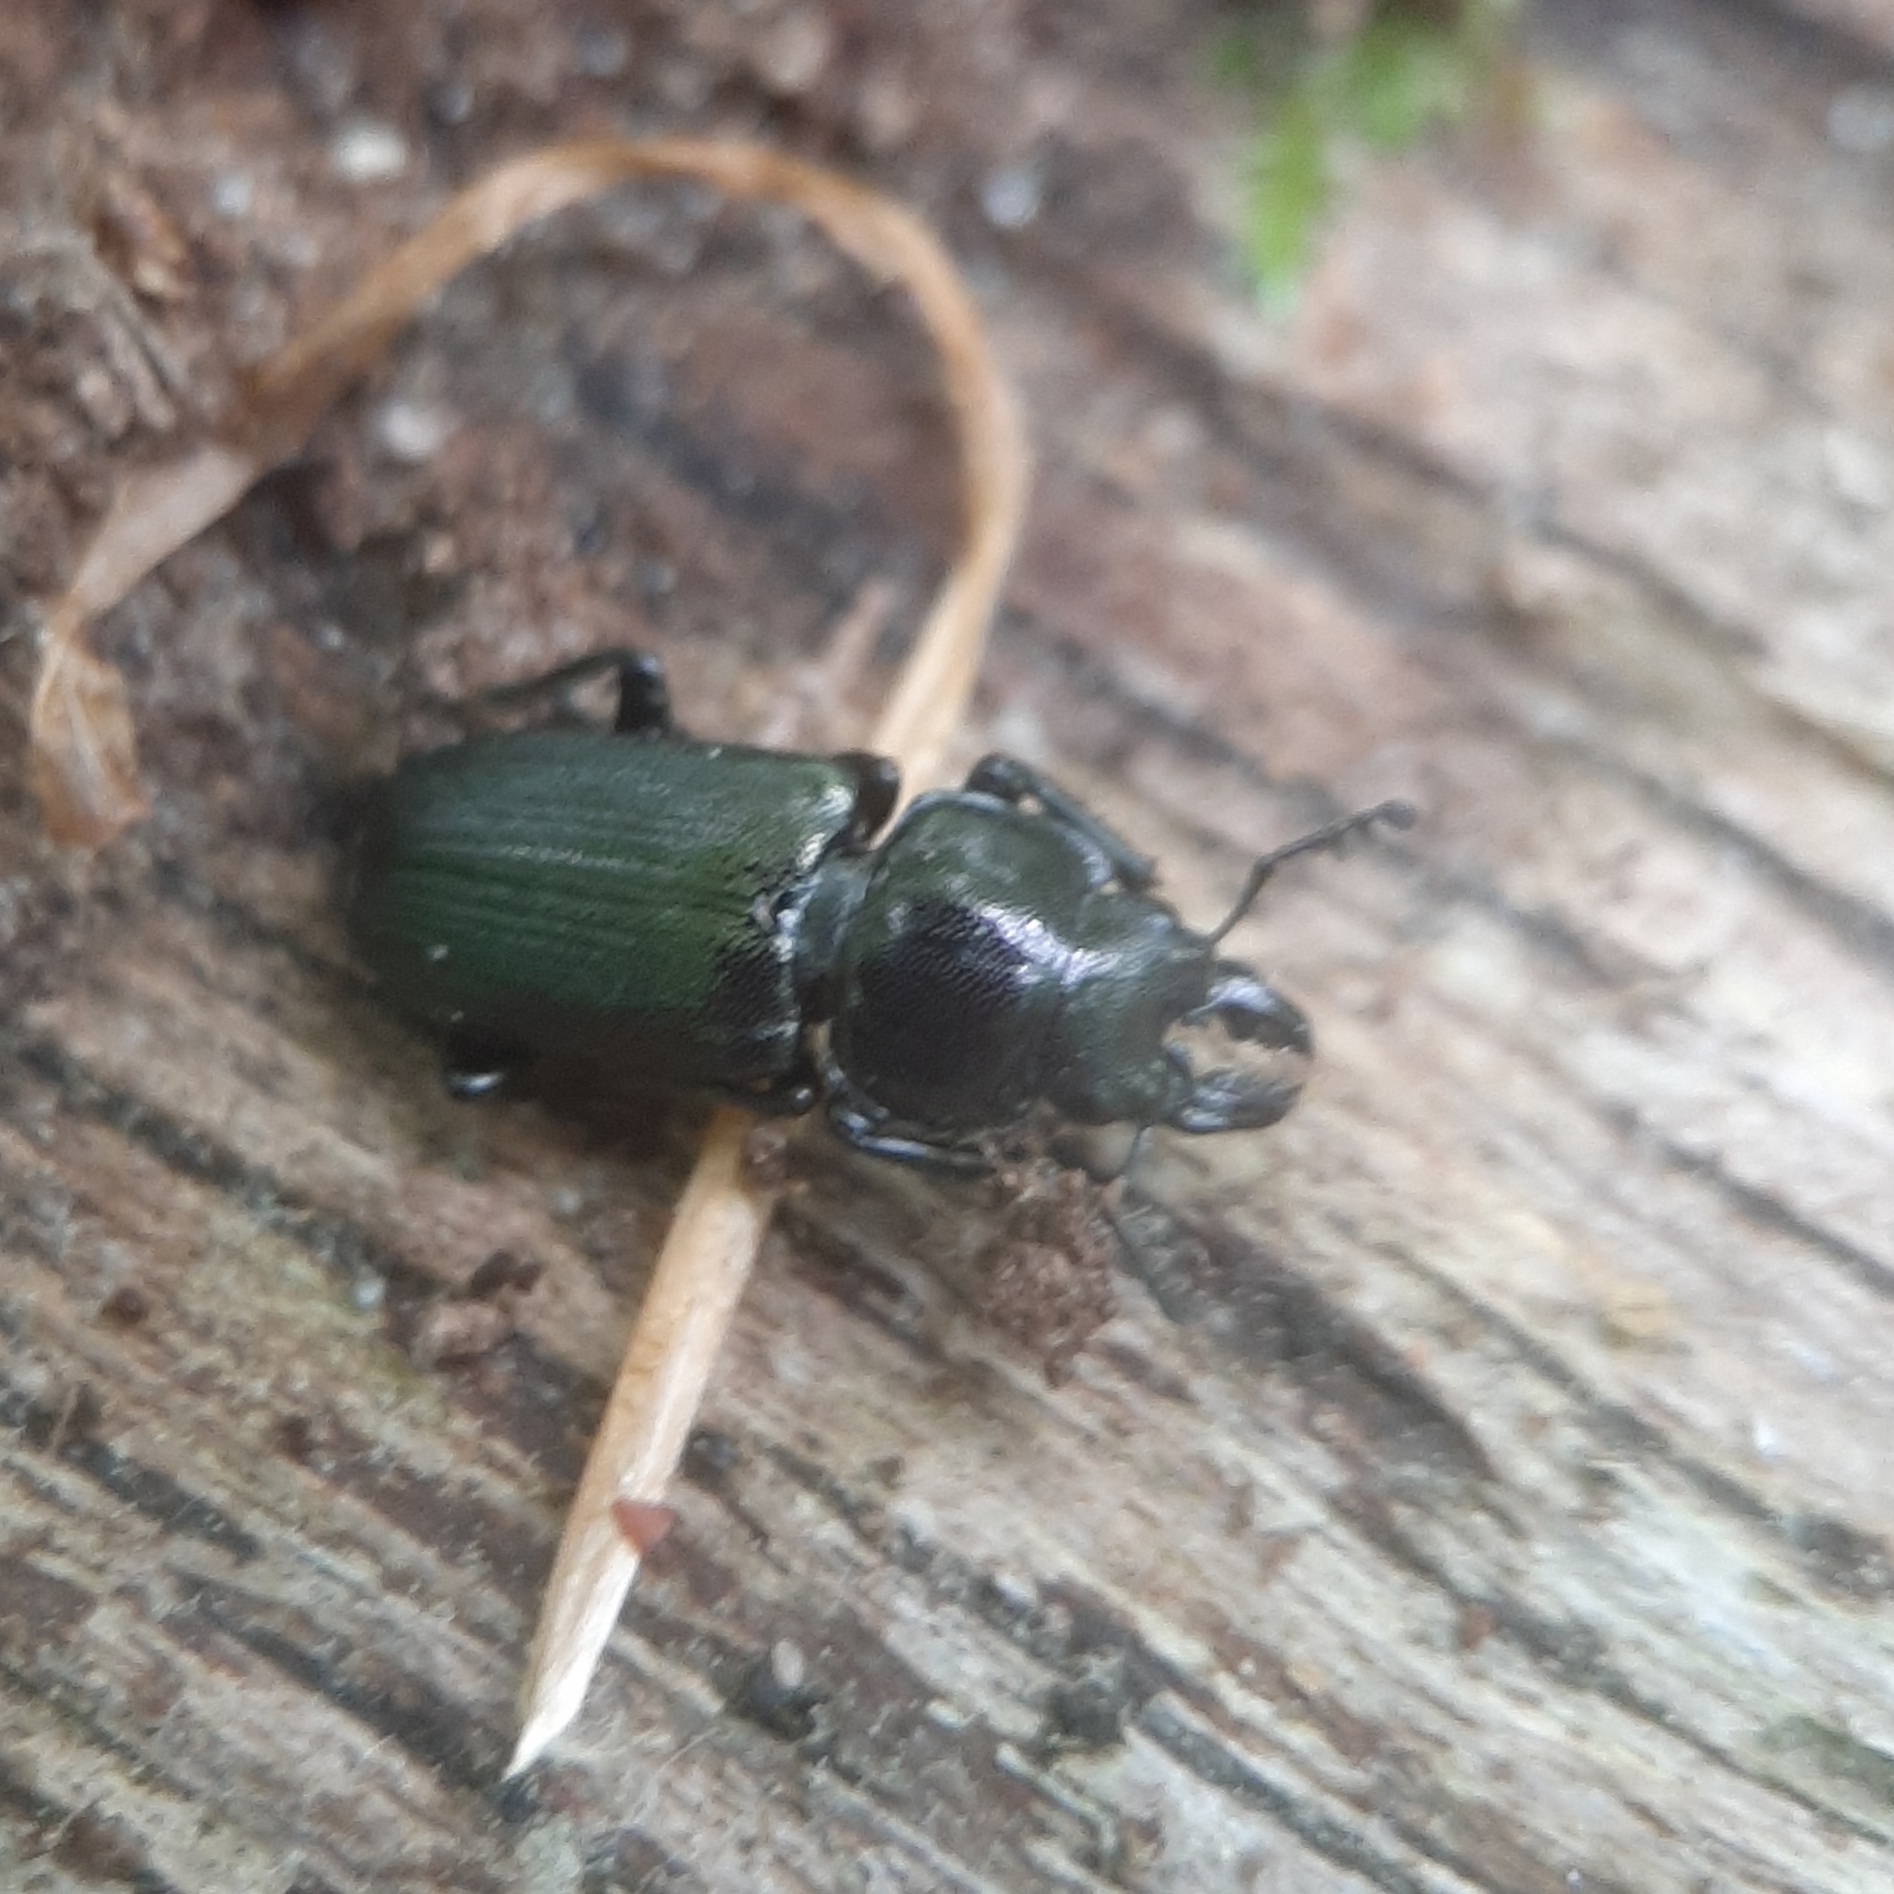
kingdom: Animalia
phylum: Arthropoda
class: Insecta
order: Coleoptera
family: Lucanidae
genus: Platycerus
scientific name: Platycerus quercus
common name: Oak stag beetle
